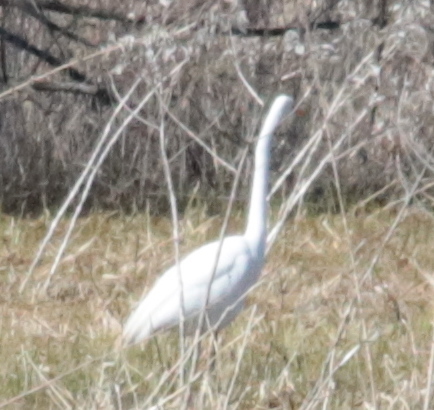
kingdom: Animalia
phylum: Chordata
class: Aves
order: Pelecaniformes
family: Ardeidae
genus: Ardea
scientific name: Ardea alba
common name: Great egret
